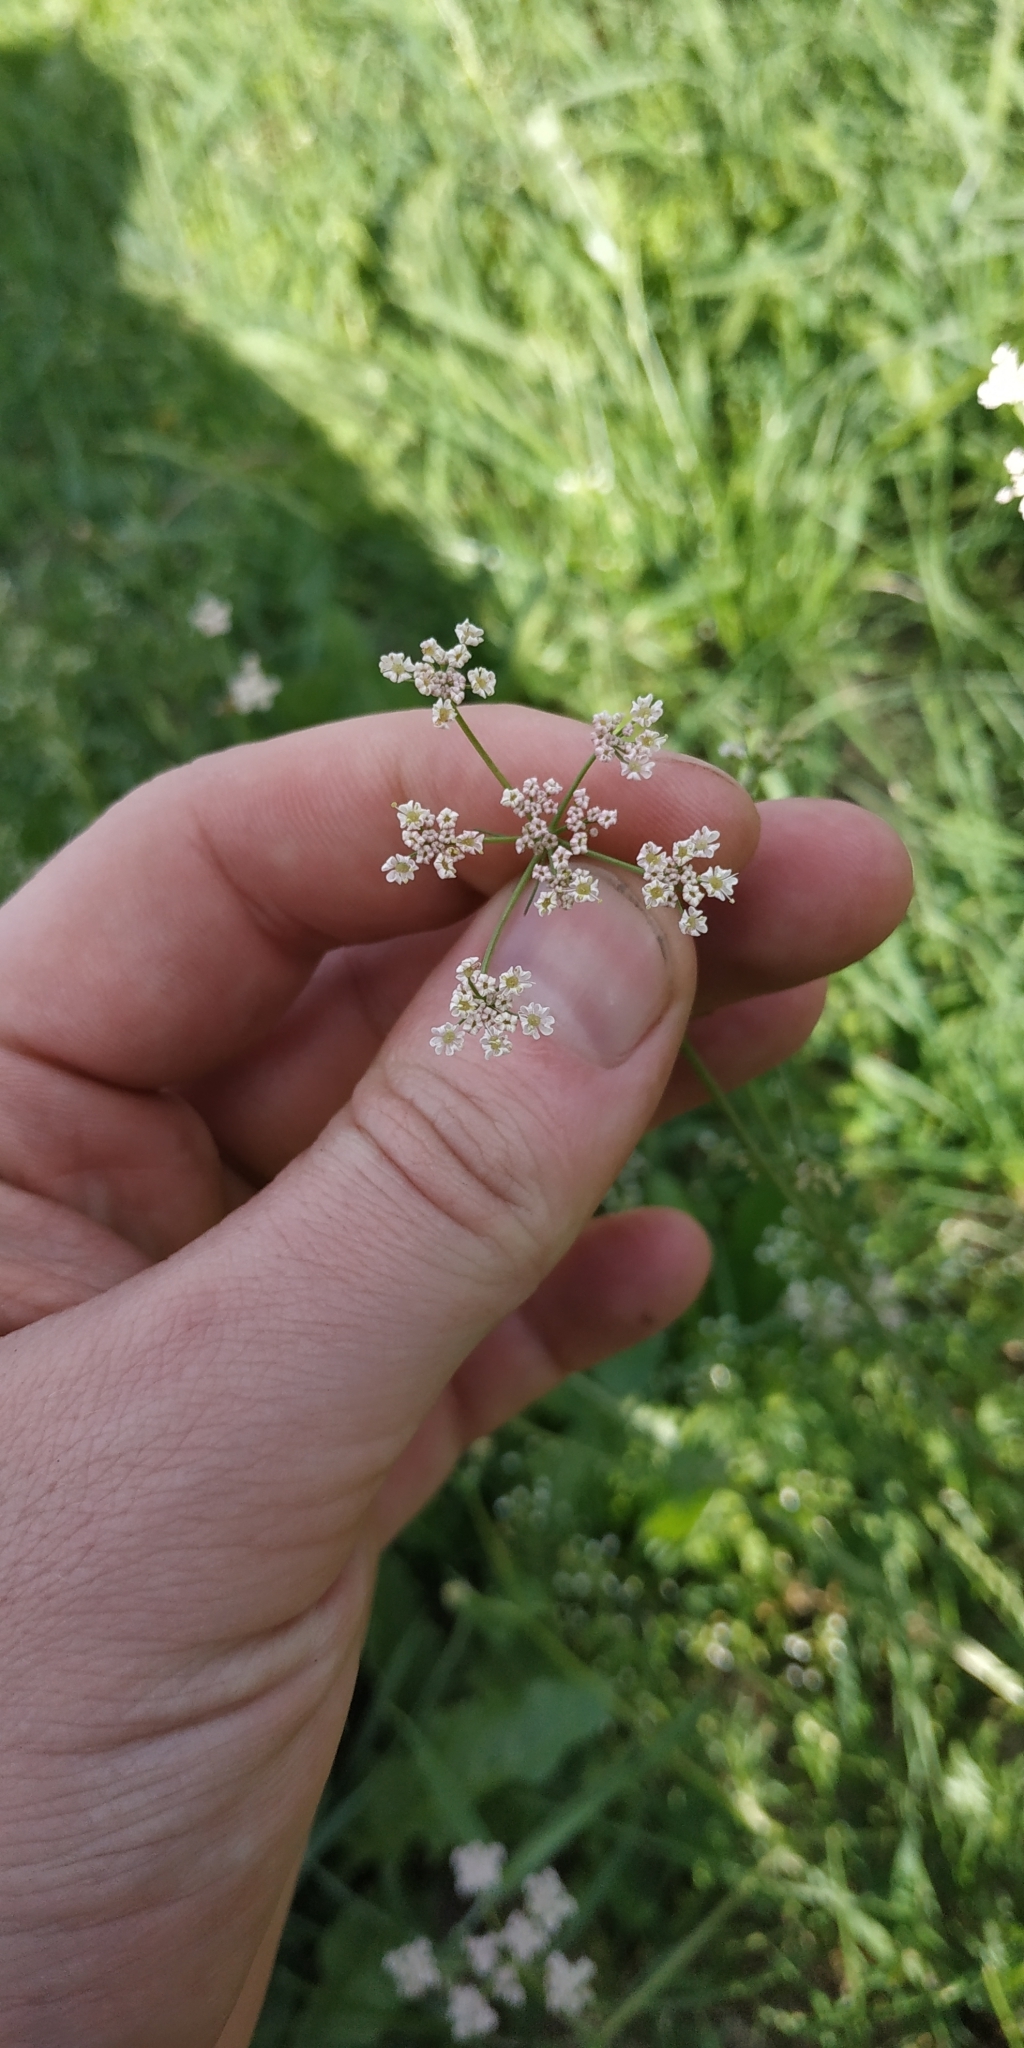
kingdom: Plantae
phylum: Tracheophyta
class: Magnoliopsida
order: Apiales
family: Apiaceae
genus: Carum
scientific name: Carum carvi
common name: Caraway
